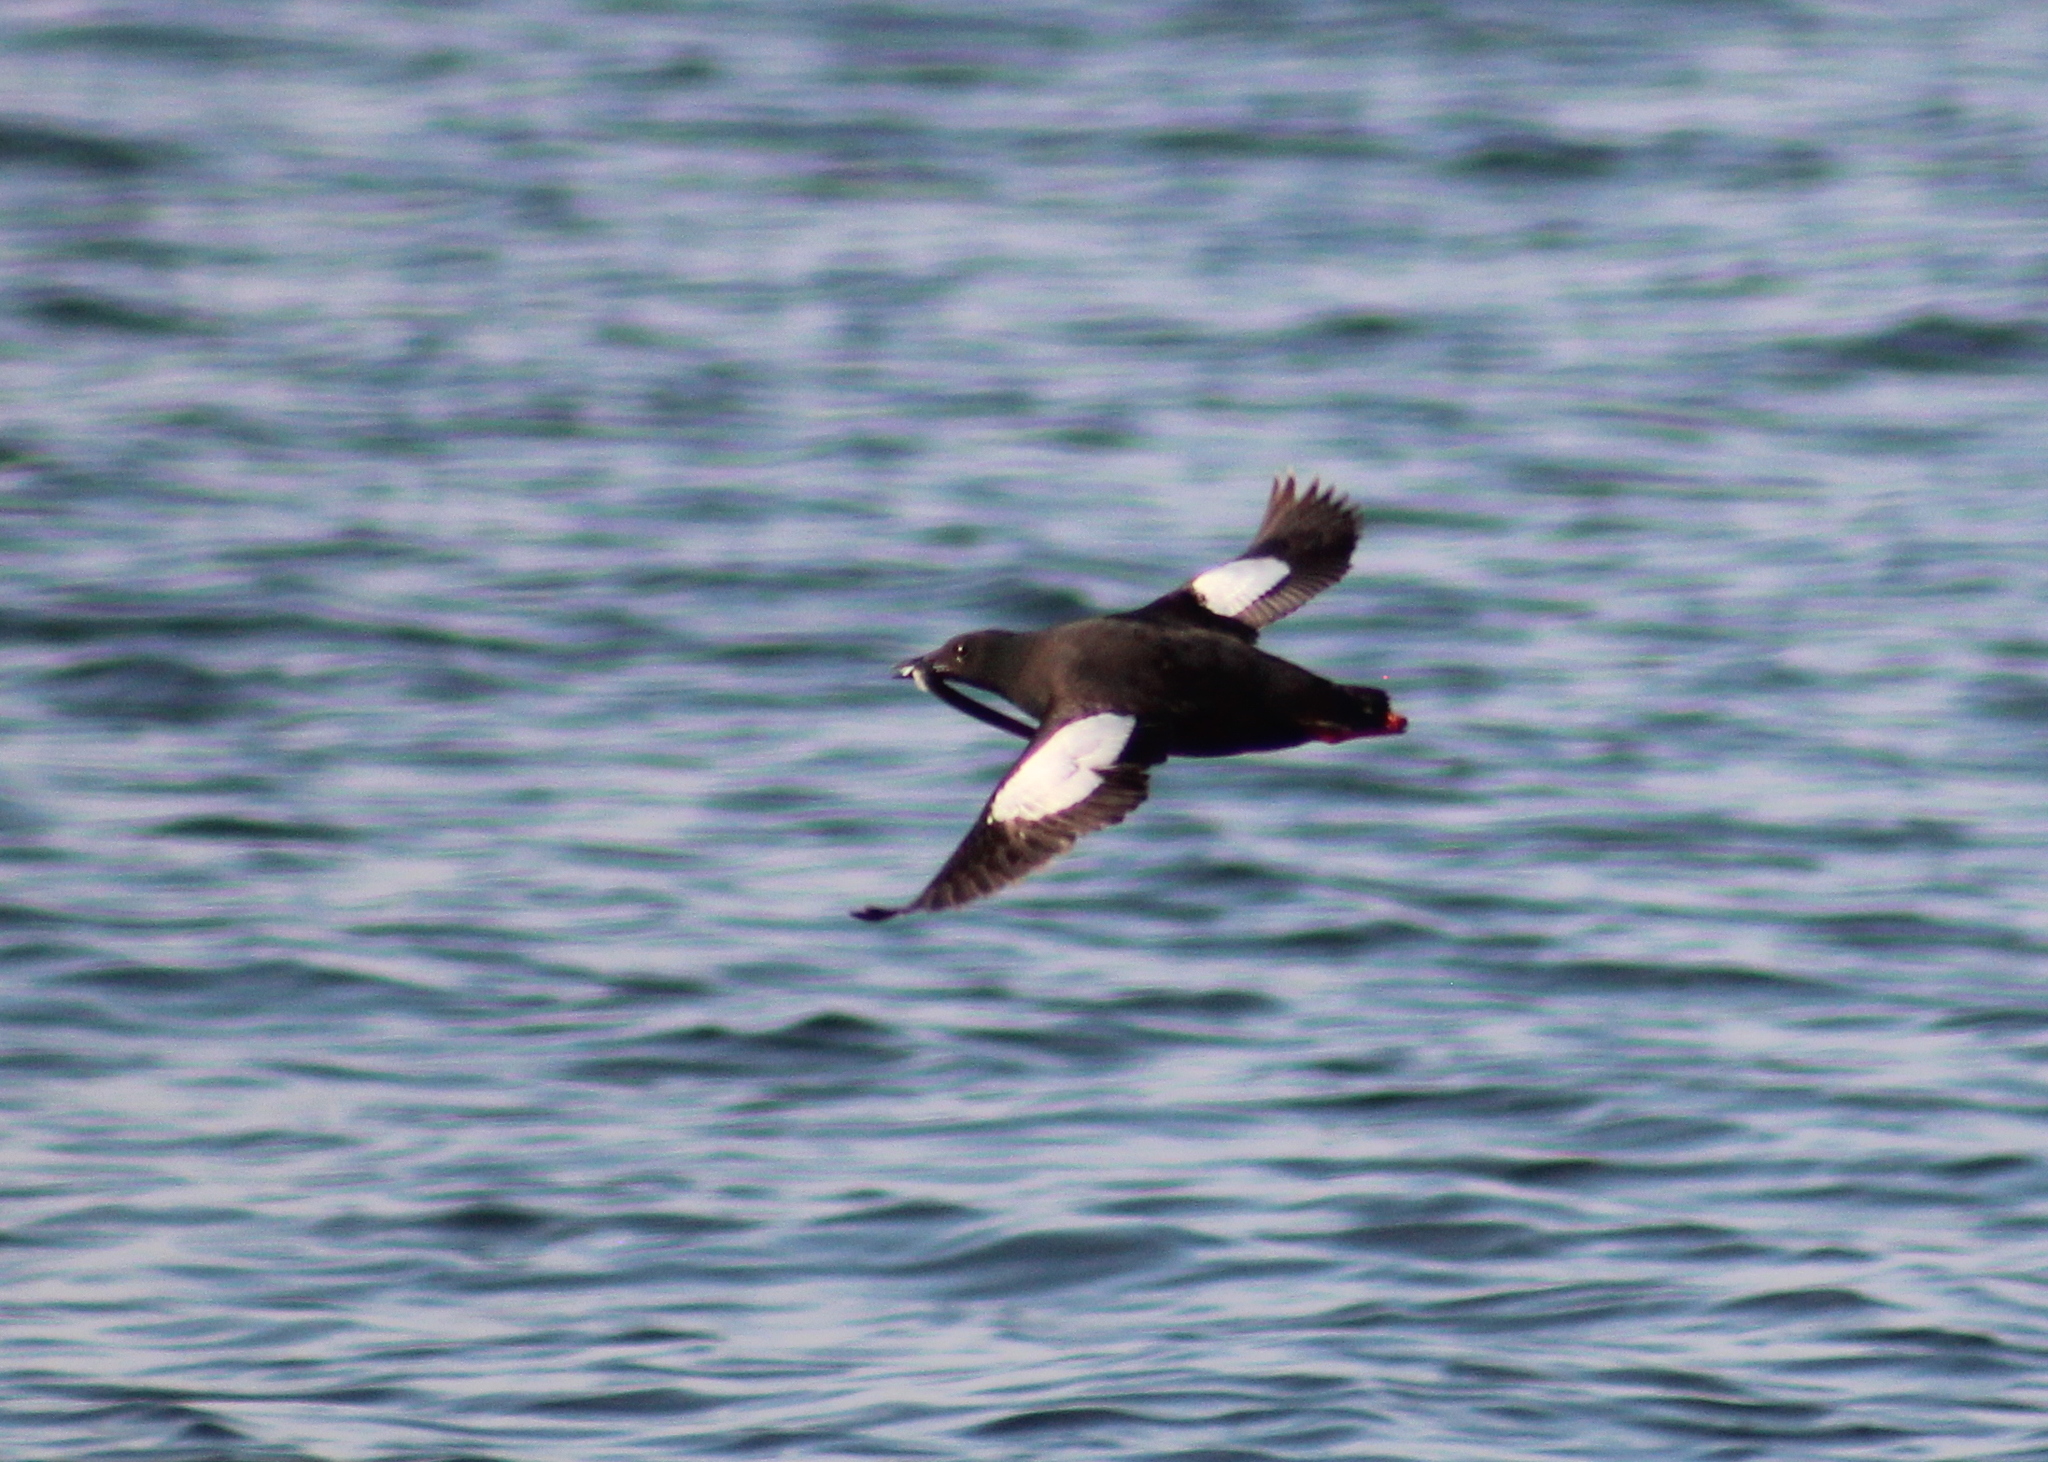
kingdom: Animalia
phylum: Chordata
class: Aves
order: Charadriiformes
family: Alcidae
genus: Cepphus
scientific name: Cepphus grylle
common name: Black guillemot
